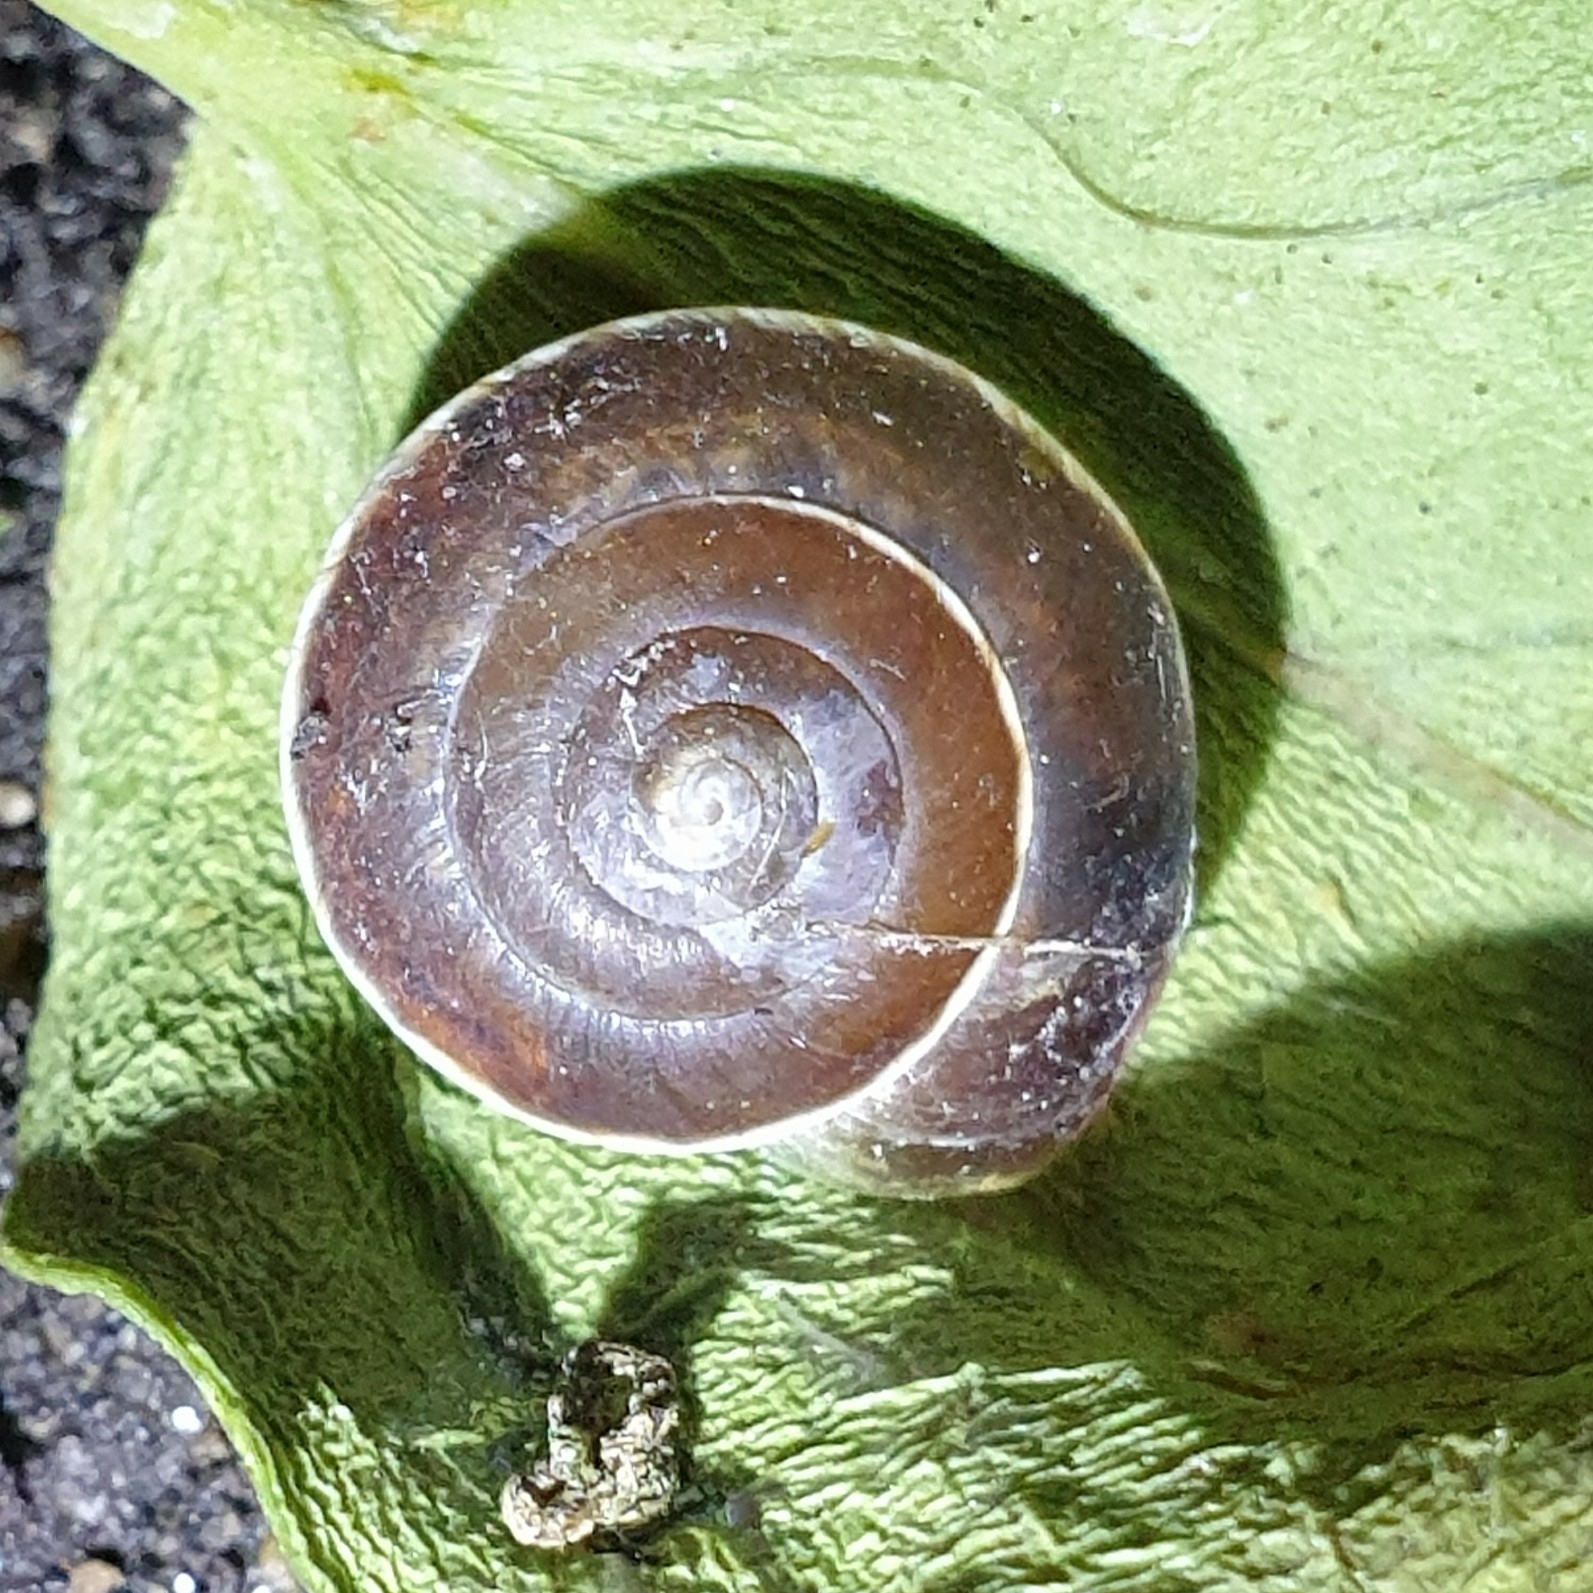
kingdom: Animalia
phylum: Mollusca
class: Gastropoda
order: Stylommatophora
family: Hygromiidae
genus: Hygromia
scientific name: Hygromia cinctella
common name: Girdled snail
